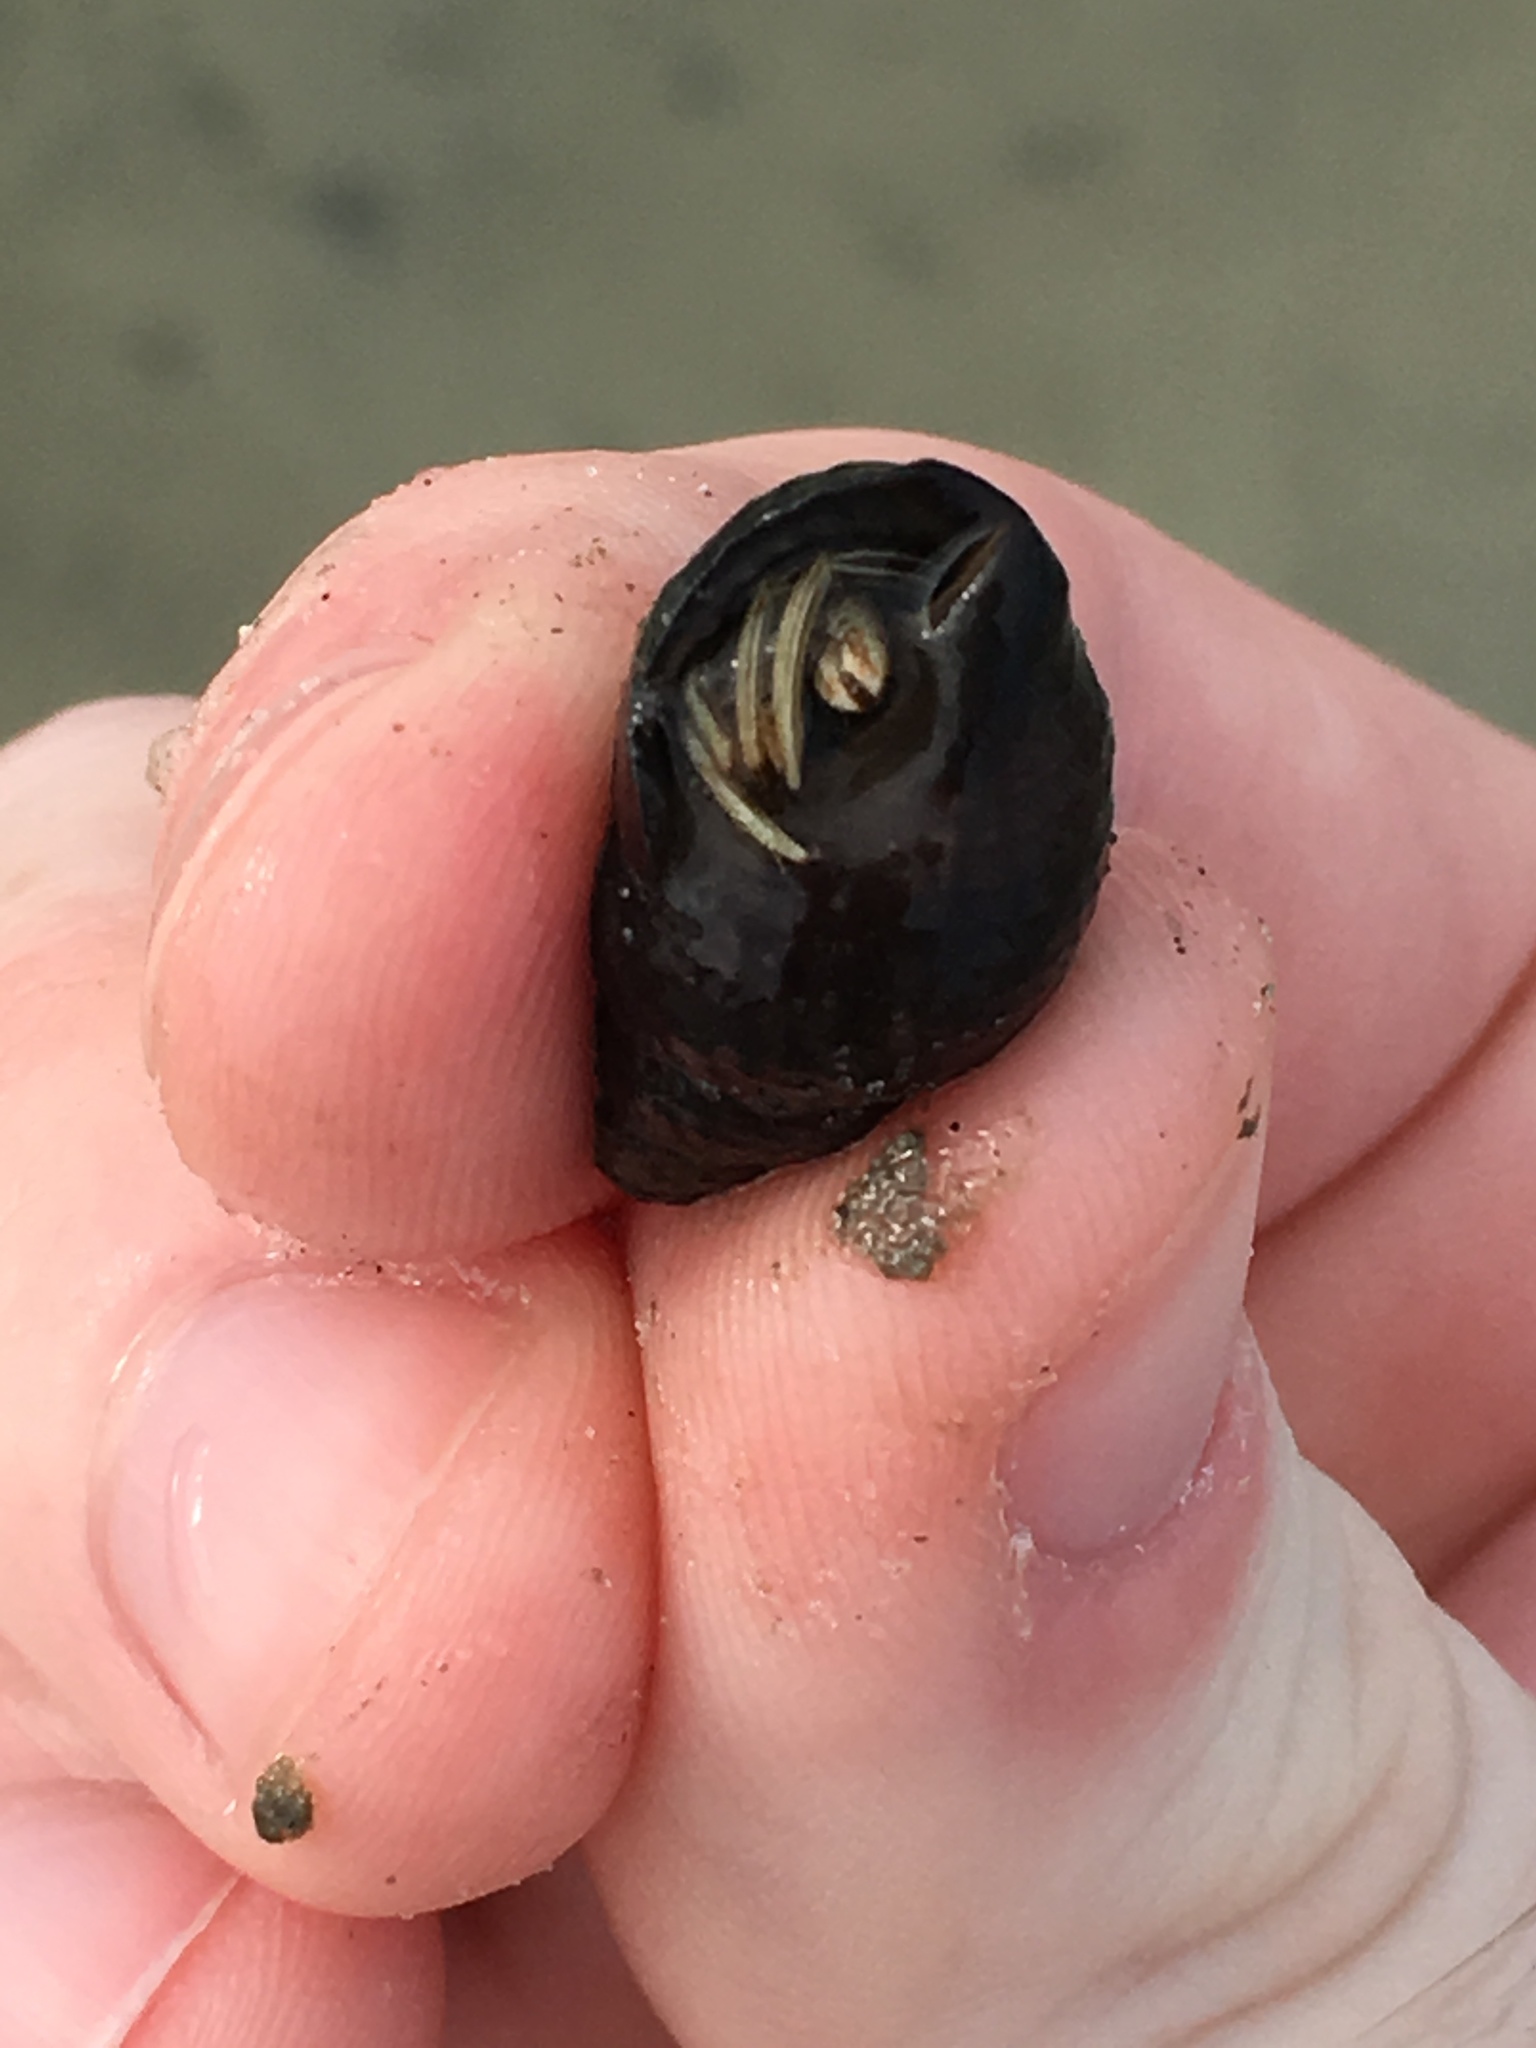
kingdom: Animalia
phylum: Arthropoda
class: Malacostraca
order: Decapoda
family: Diogenidae
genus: Clibanarius
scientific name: Clibanarius vittatus
